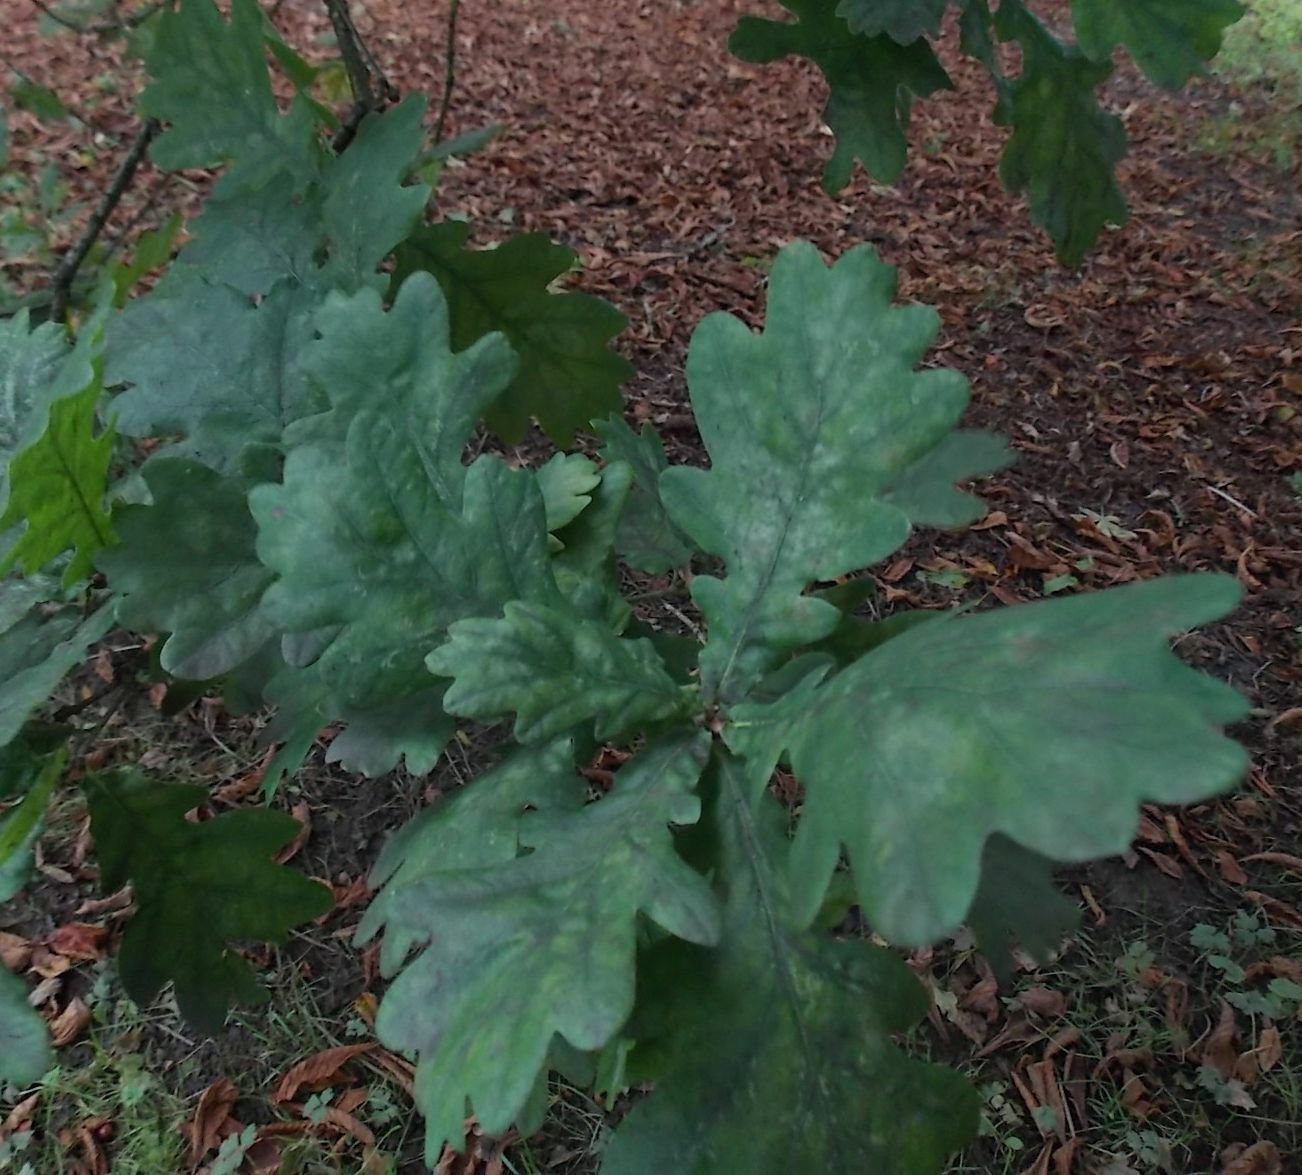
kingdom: Plantae
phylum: Tracheophyta
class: Magnoliopsida
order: Fagales
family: Fagaceae
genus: Quercus
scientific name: Quercus robur
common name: Pedunculate oak
